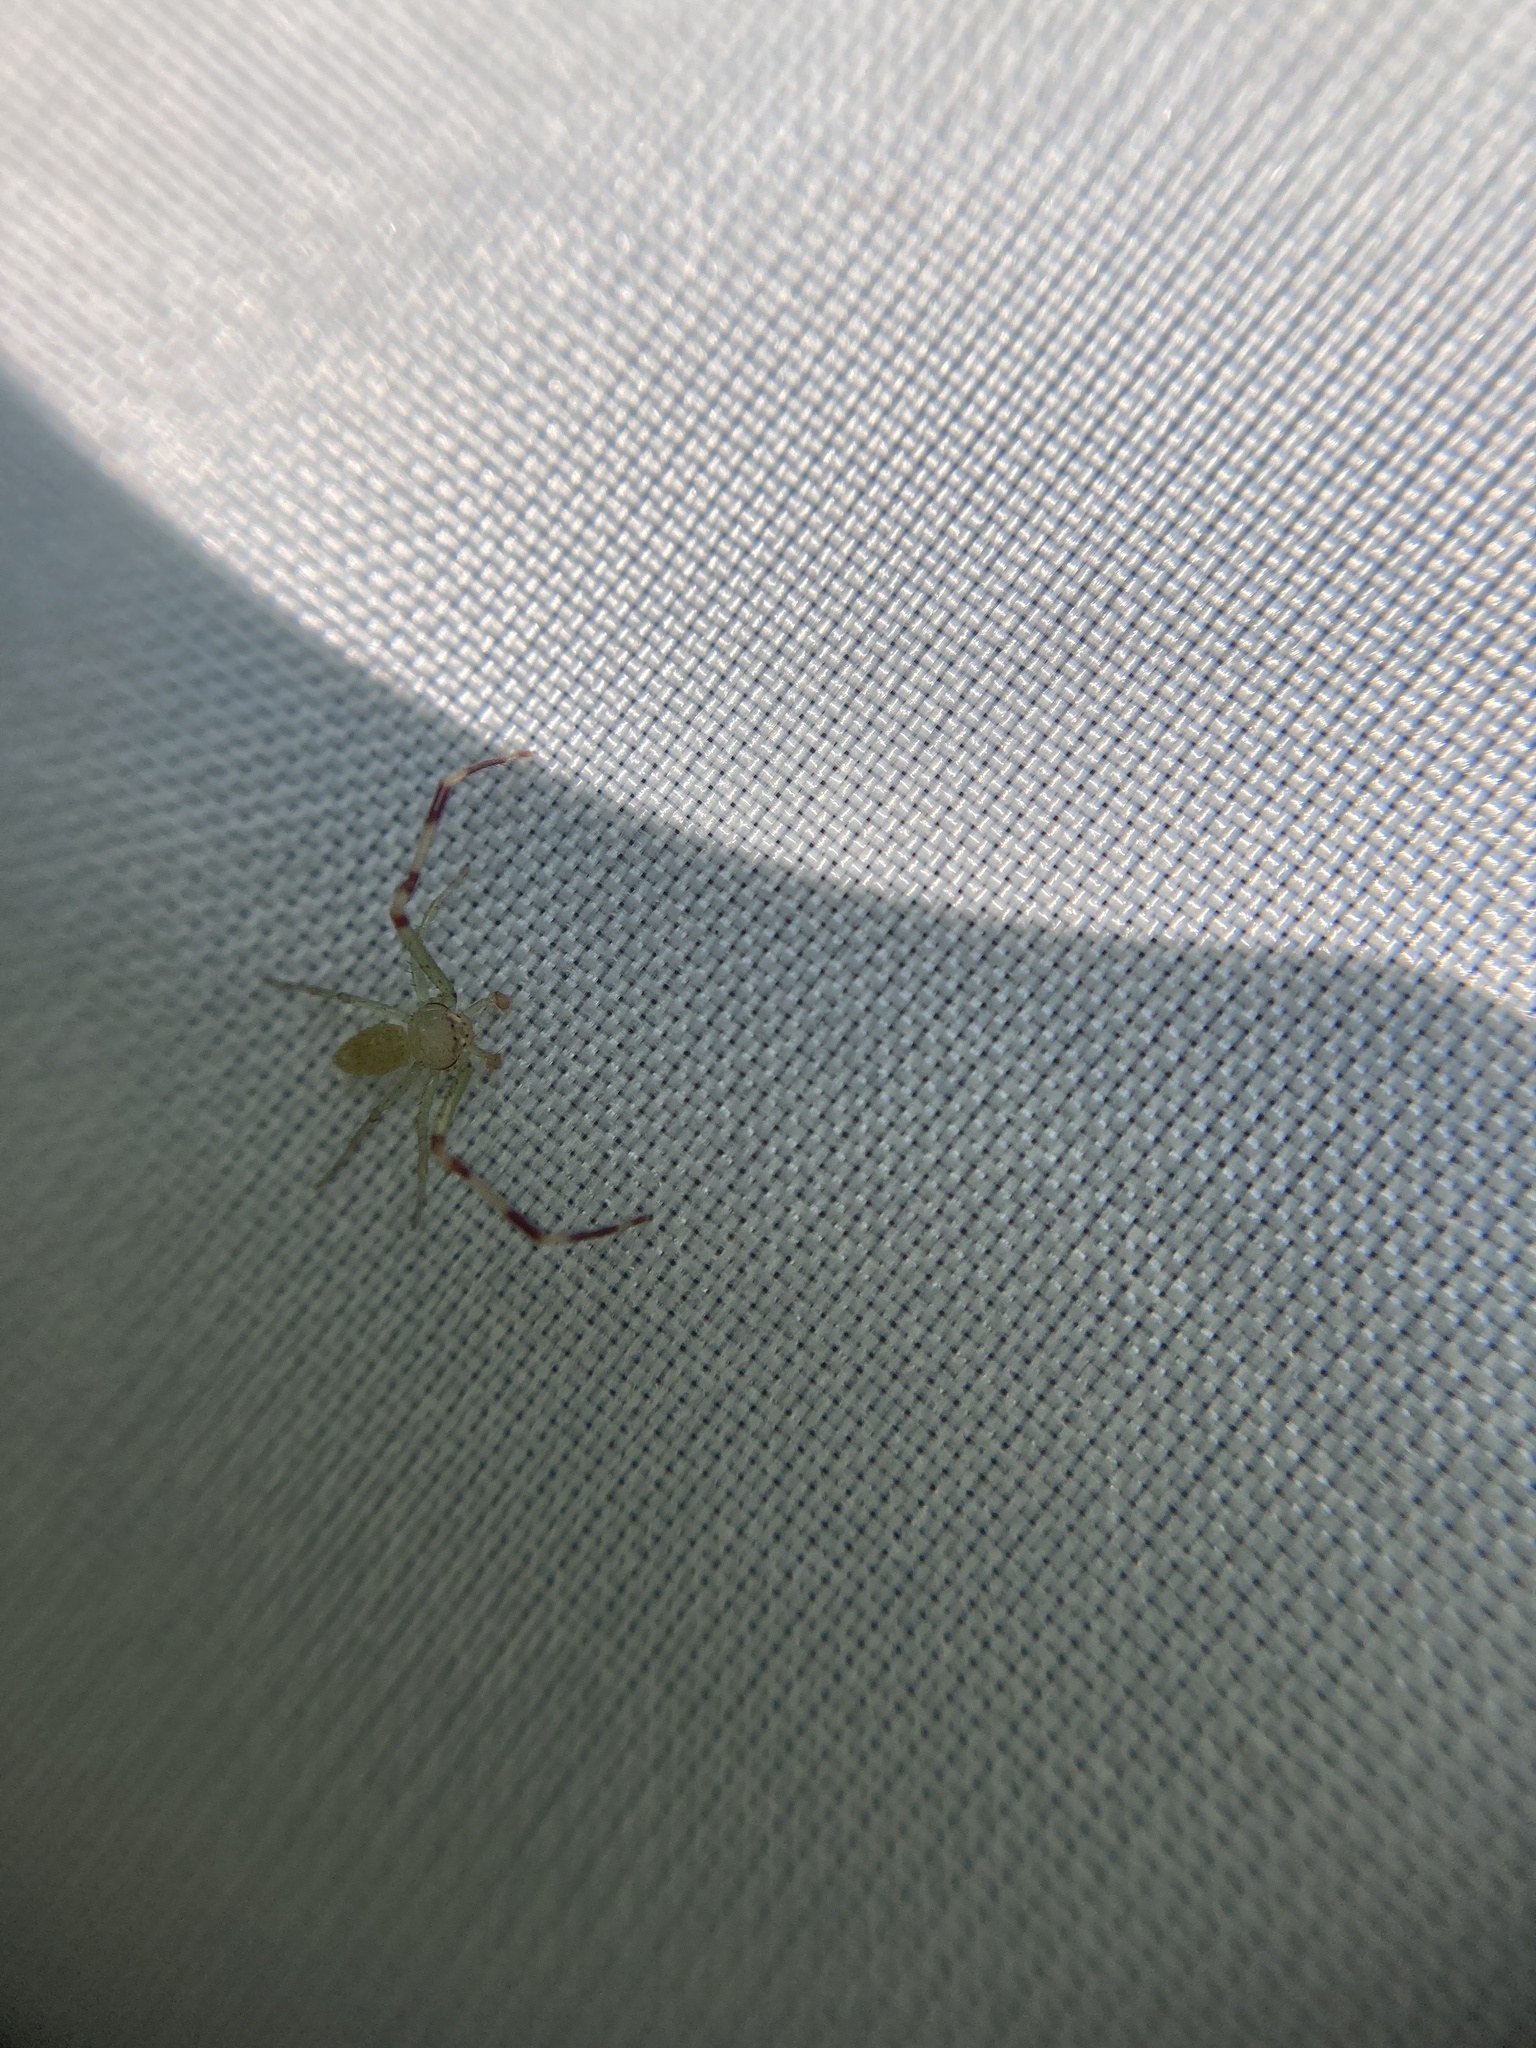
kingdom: Animalia
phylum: Arthropoda
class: Arachnida
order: Araneae
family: Thomisidae
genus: Misumessus
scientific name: Misumessus oblongus
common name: American green crab spider
